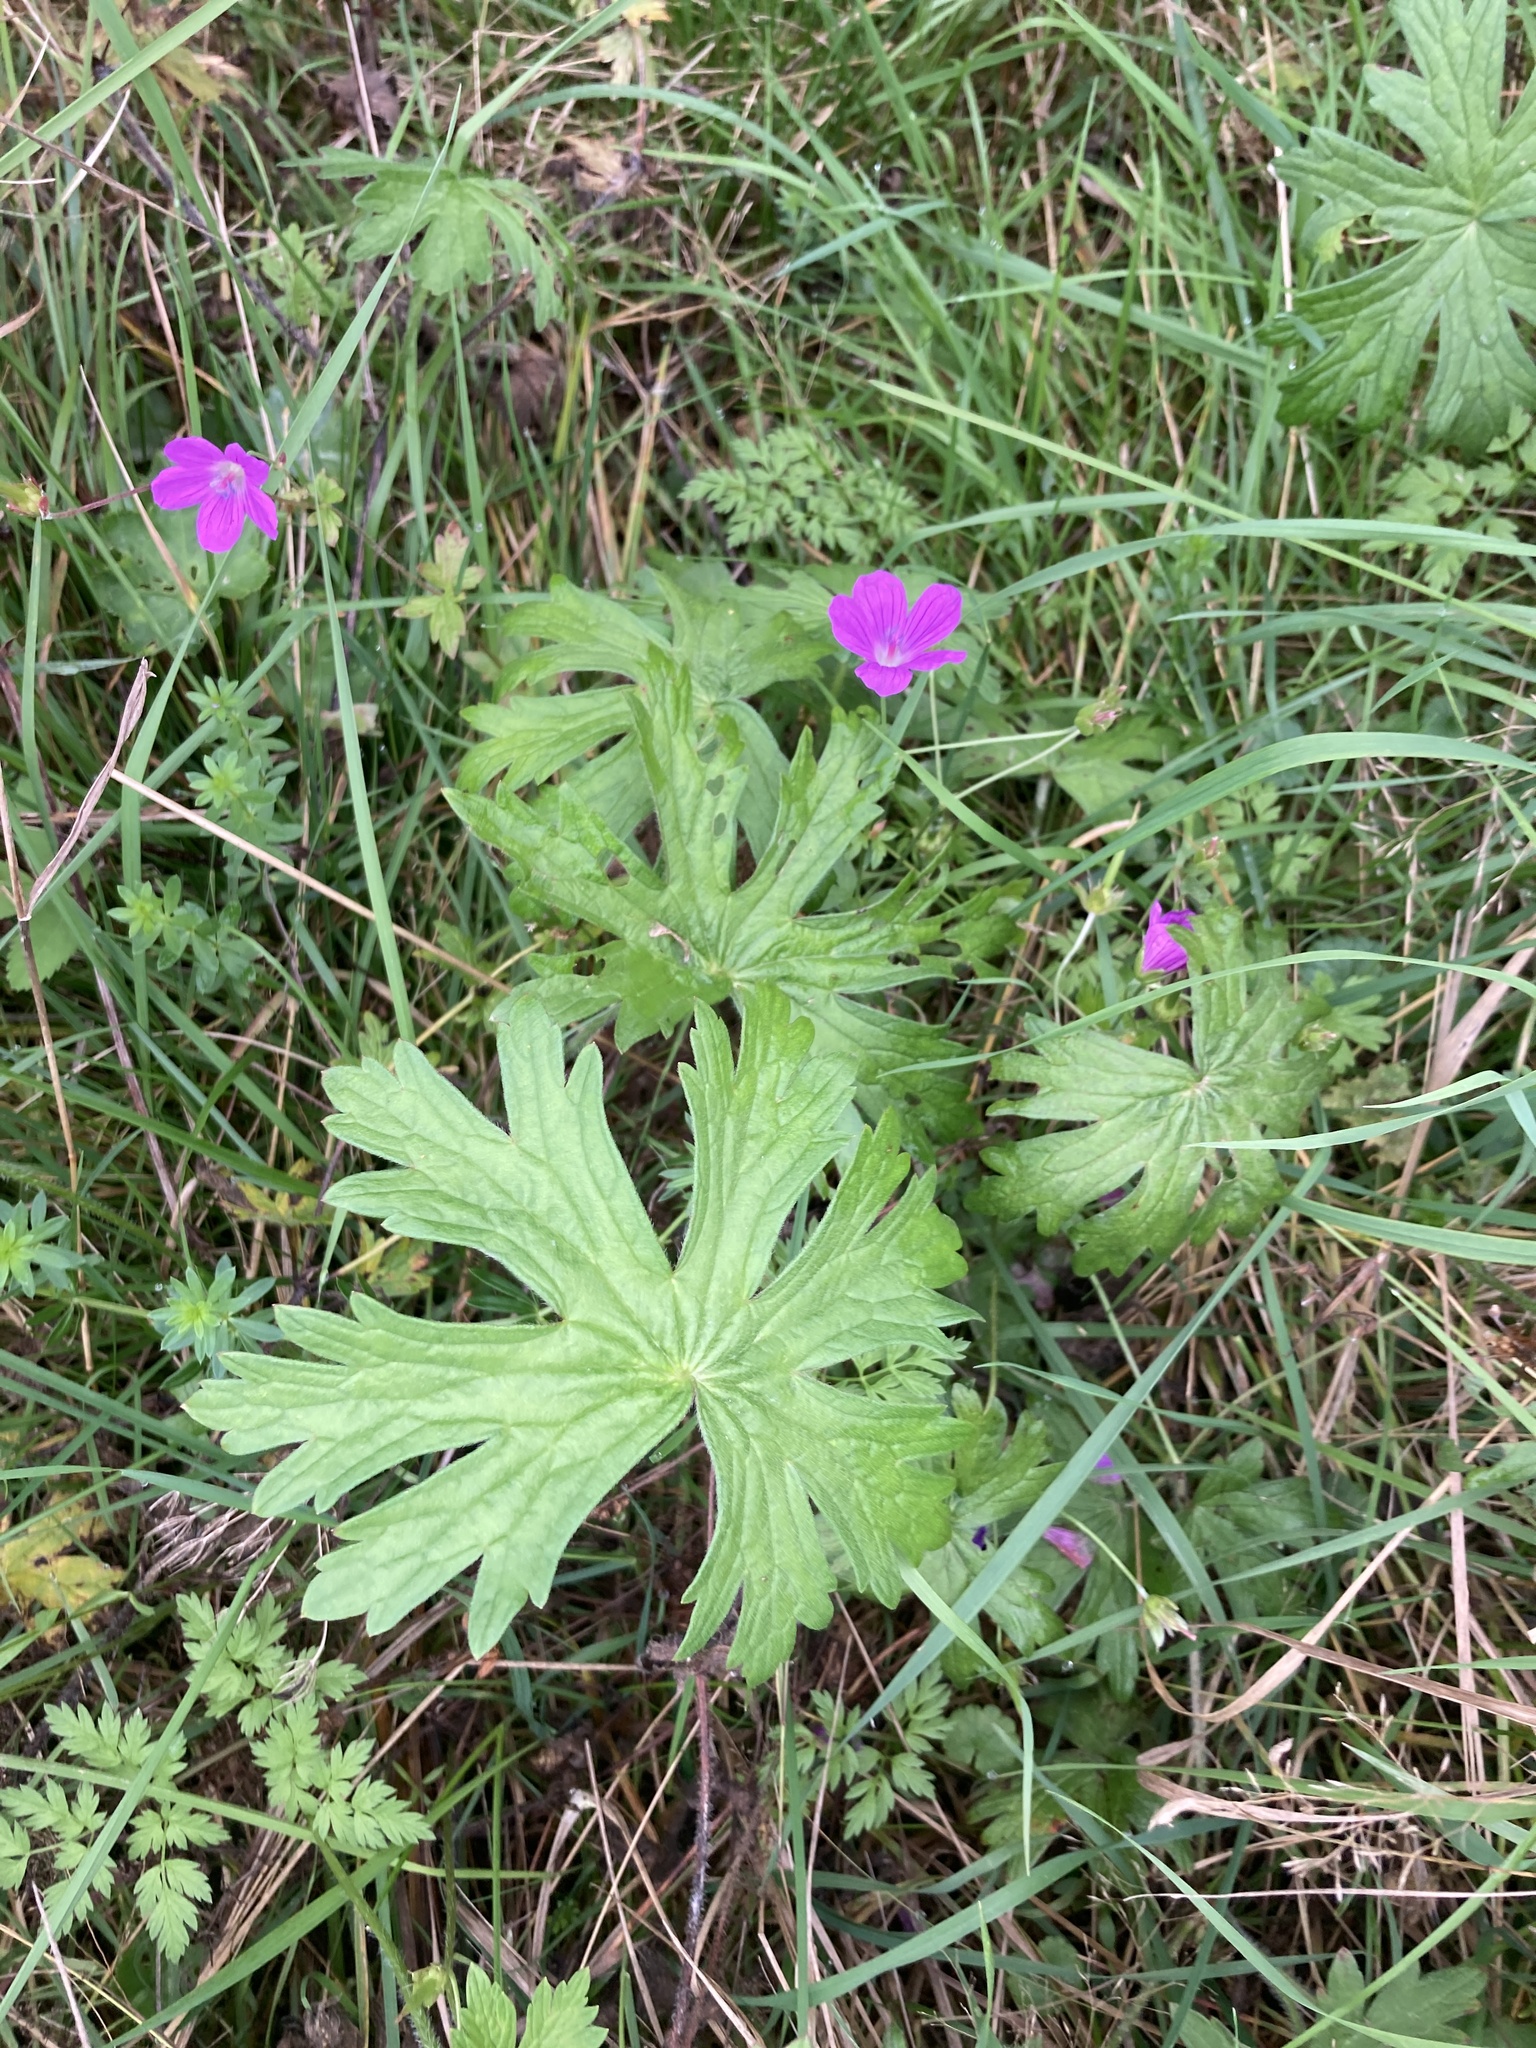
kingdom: Plantae
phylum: Tracheophyta
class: Magnoliopsida
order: Geraniales
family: Geraniaceae
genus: Geranium
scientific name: Geranium palustre
